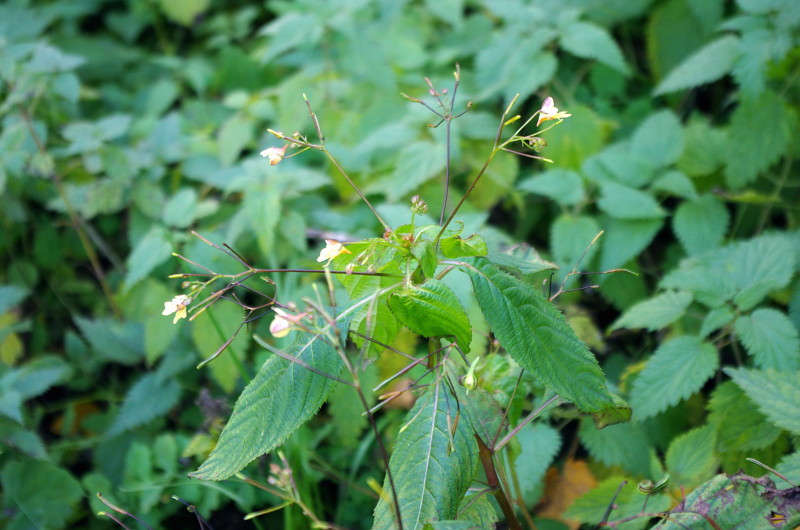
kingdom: Plantae
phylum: Tracheophyta
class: Magnoliopsida
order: Ericales
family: Balsaminaceae
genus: Impatiens
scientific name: Impatiens parviflora
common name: Small balsam
